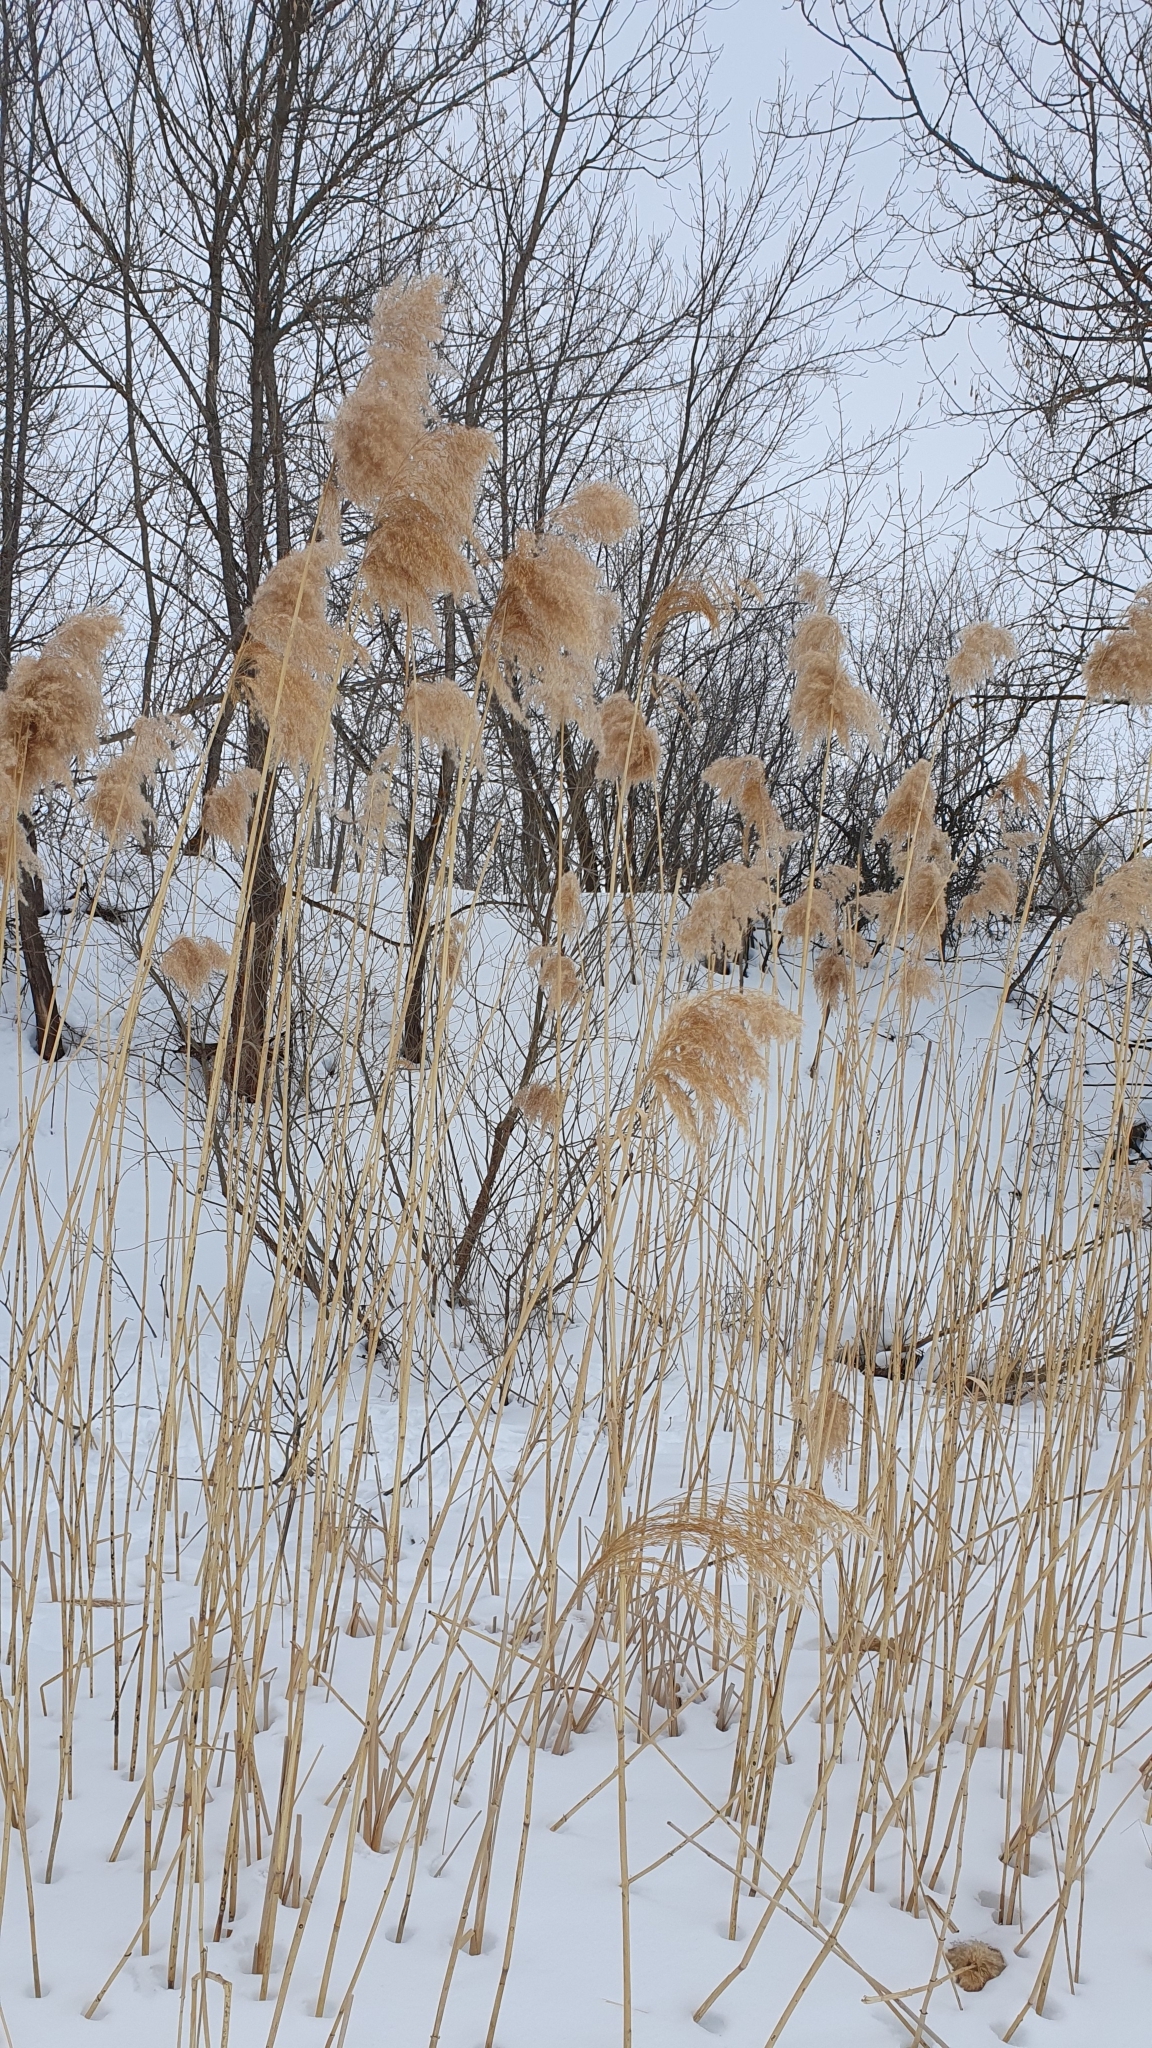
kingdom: Plantae
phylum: Tracheophyta
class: Liliopsida
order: Poales
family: Poaceae
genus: Phragmites
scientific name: Phragmites australis
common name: Common reed
